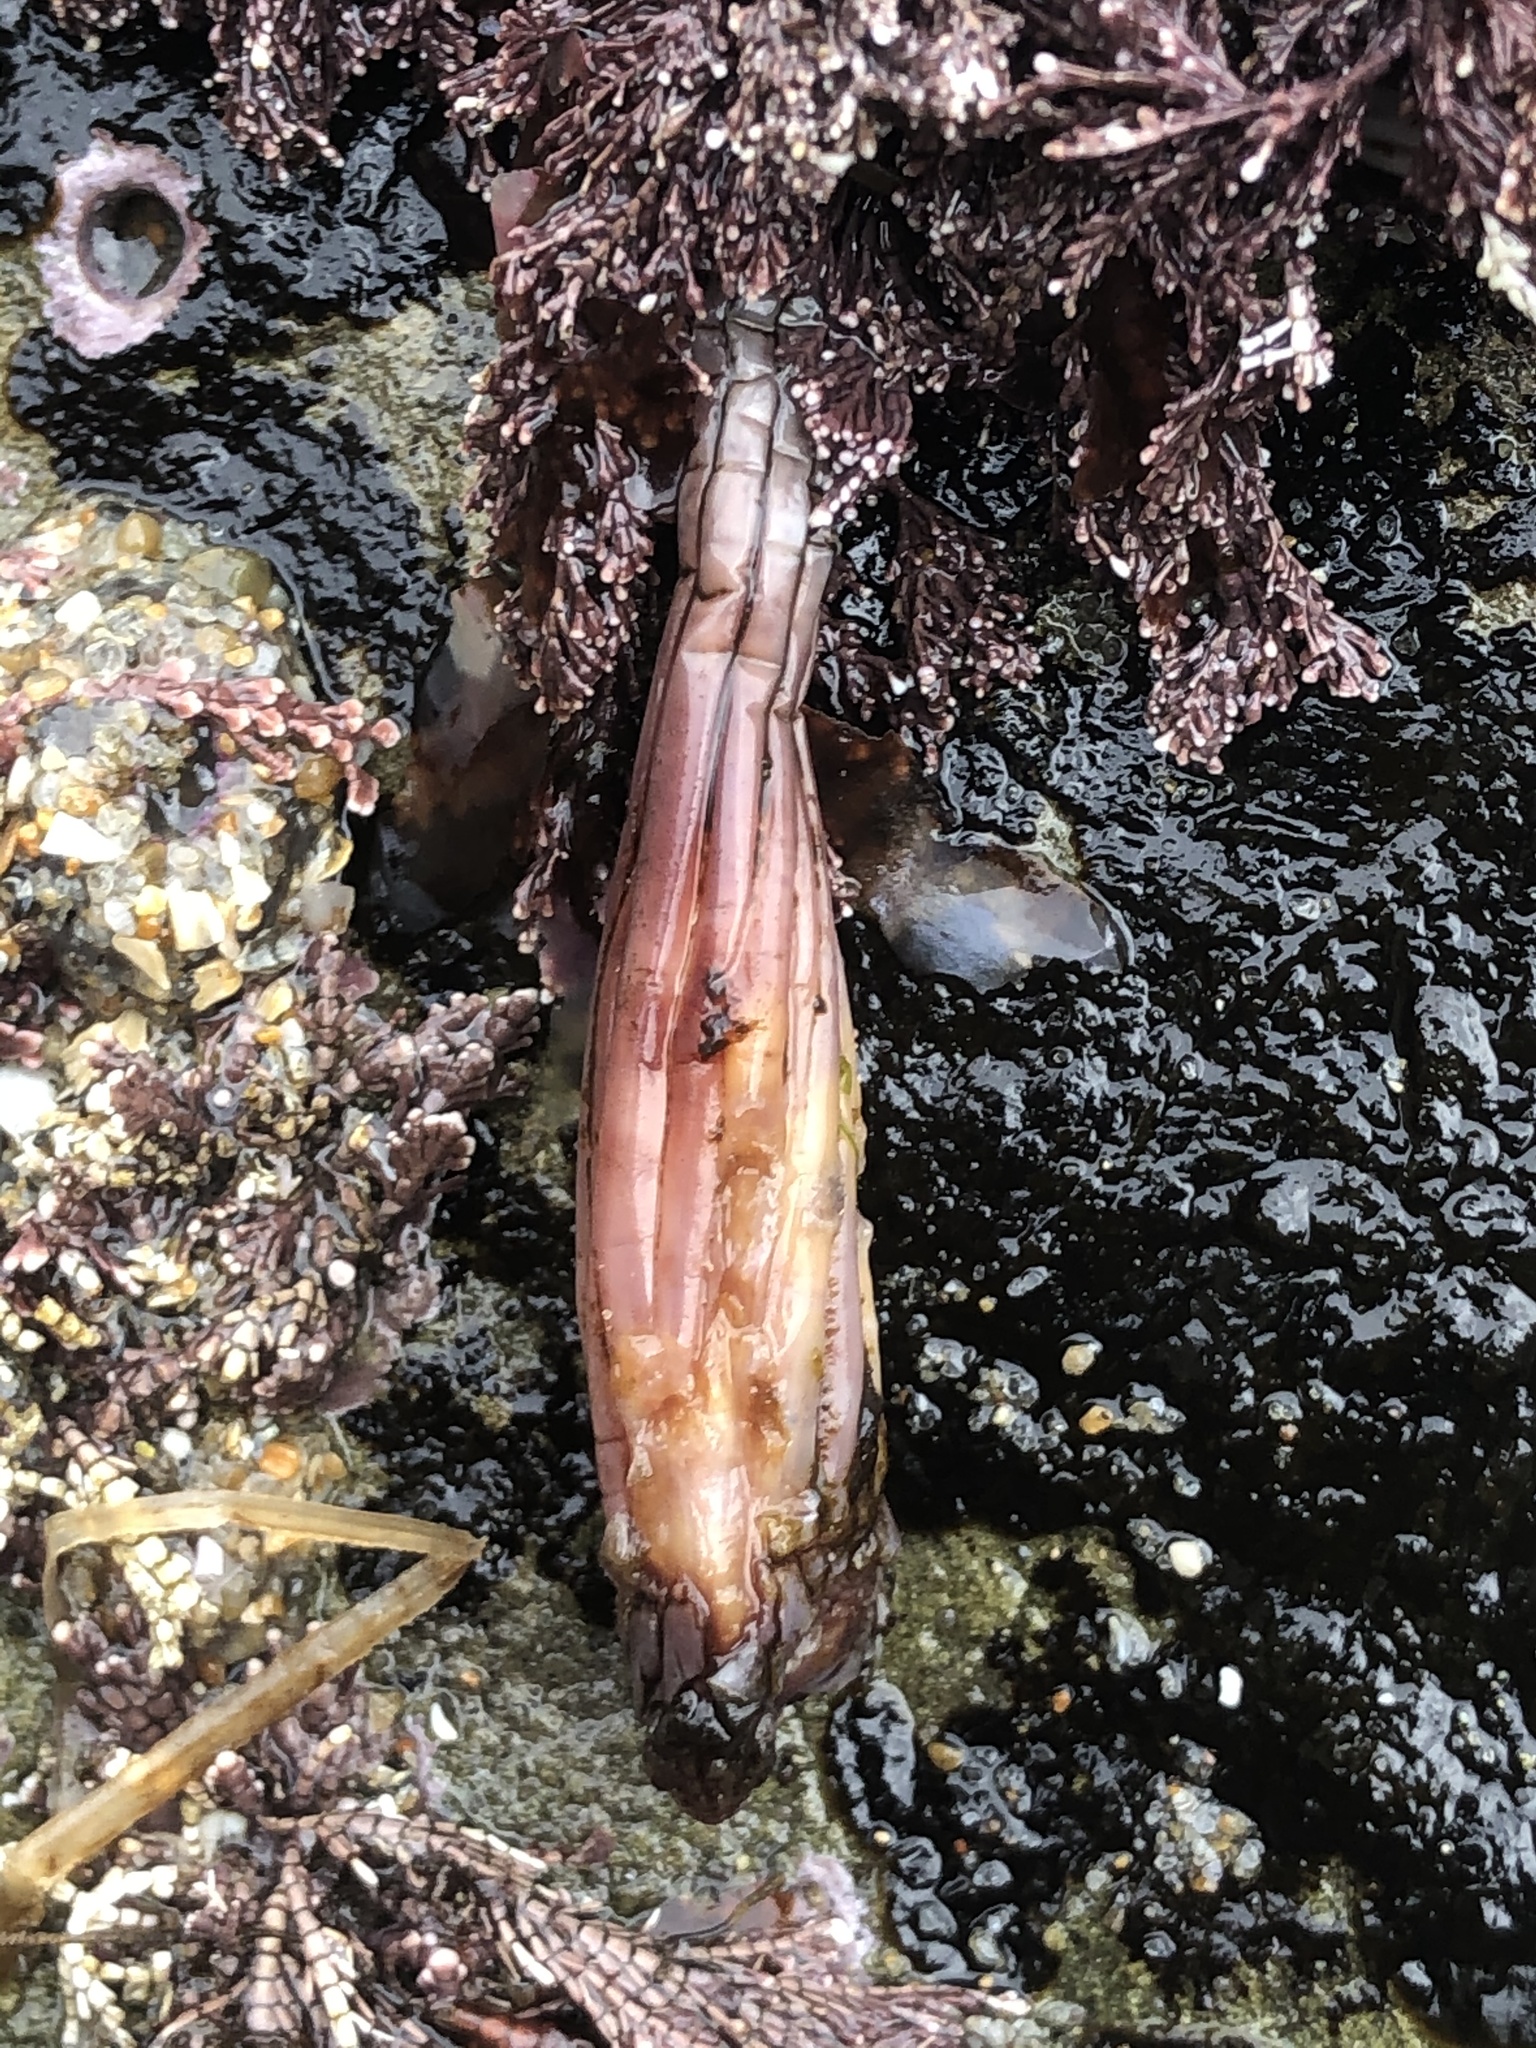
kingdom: Animalia
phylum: Chordata
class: Ascidiacea
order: Stolidobranchia
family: Styelidae
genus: Styela
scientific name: Styela montereyensis
